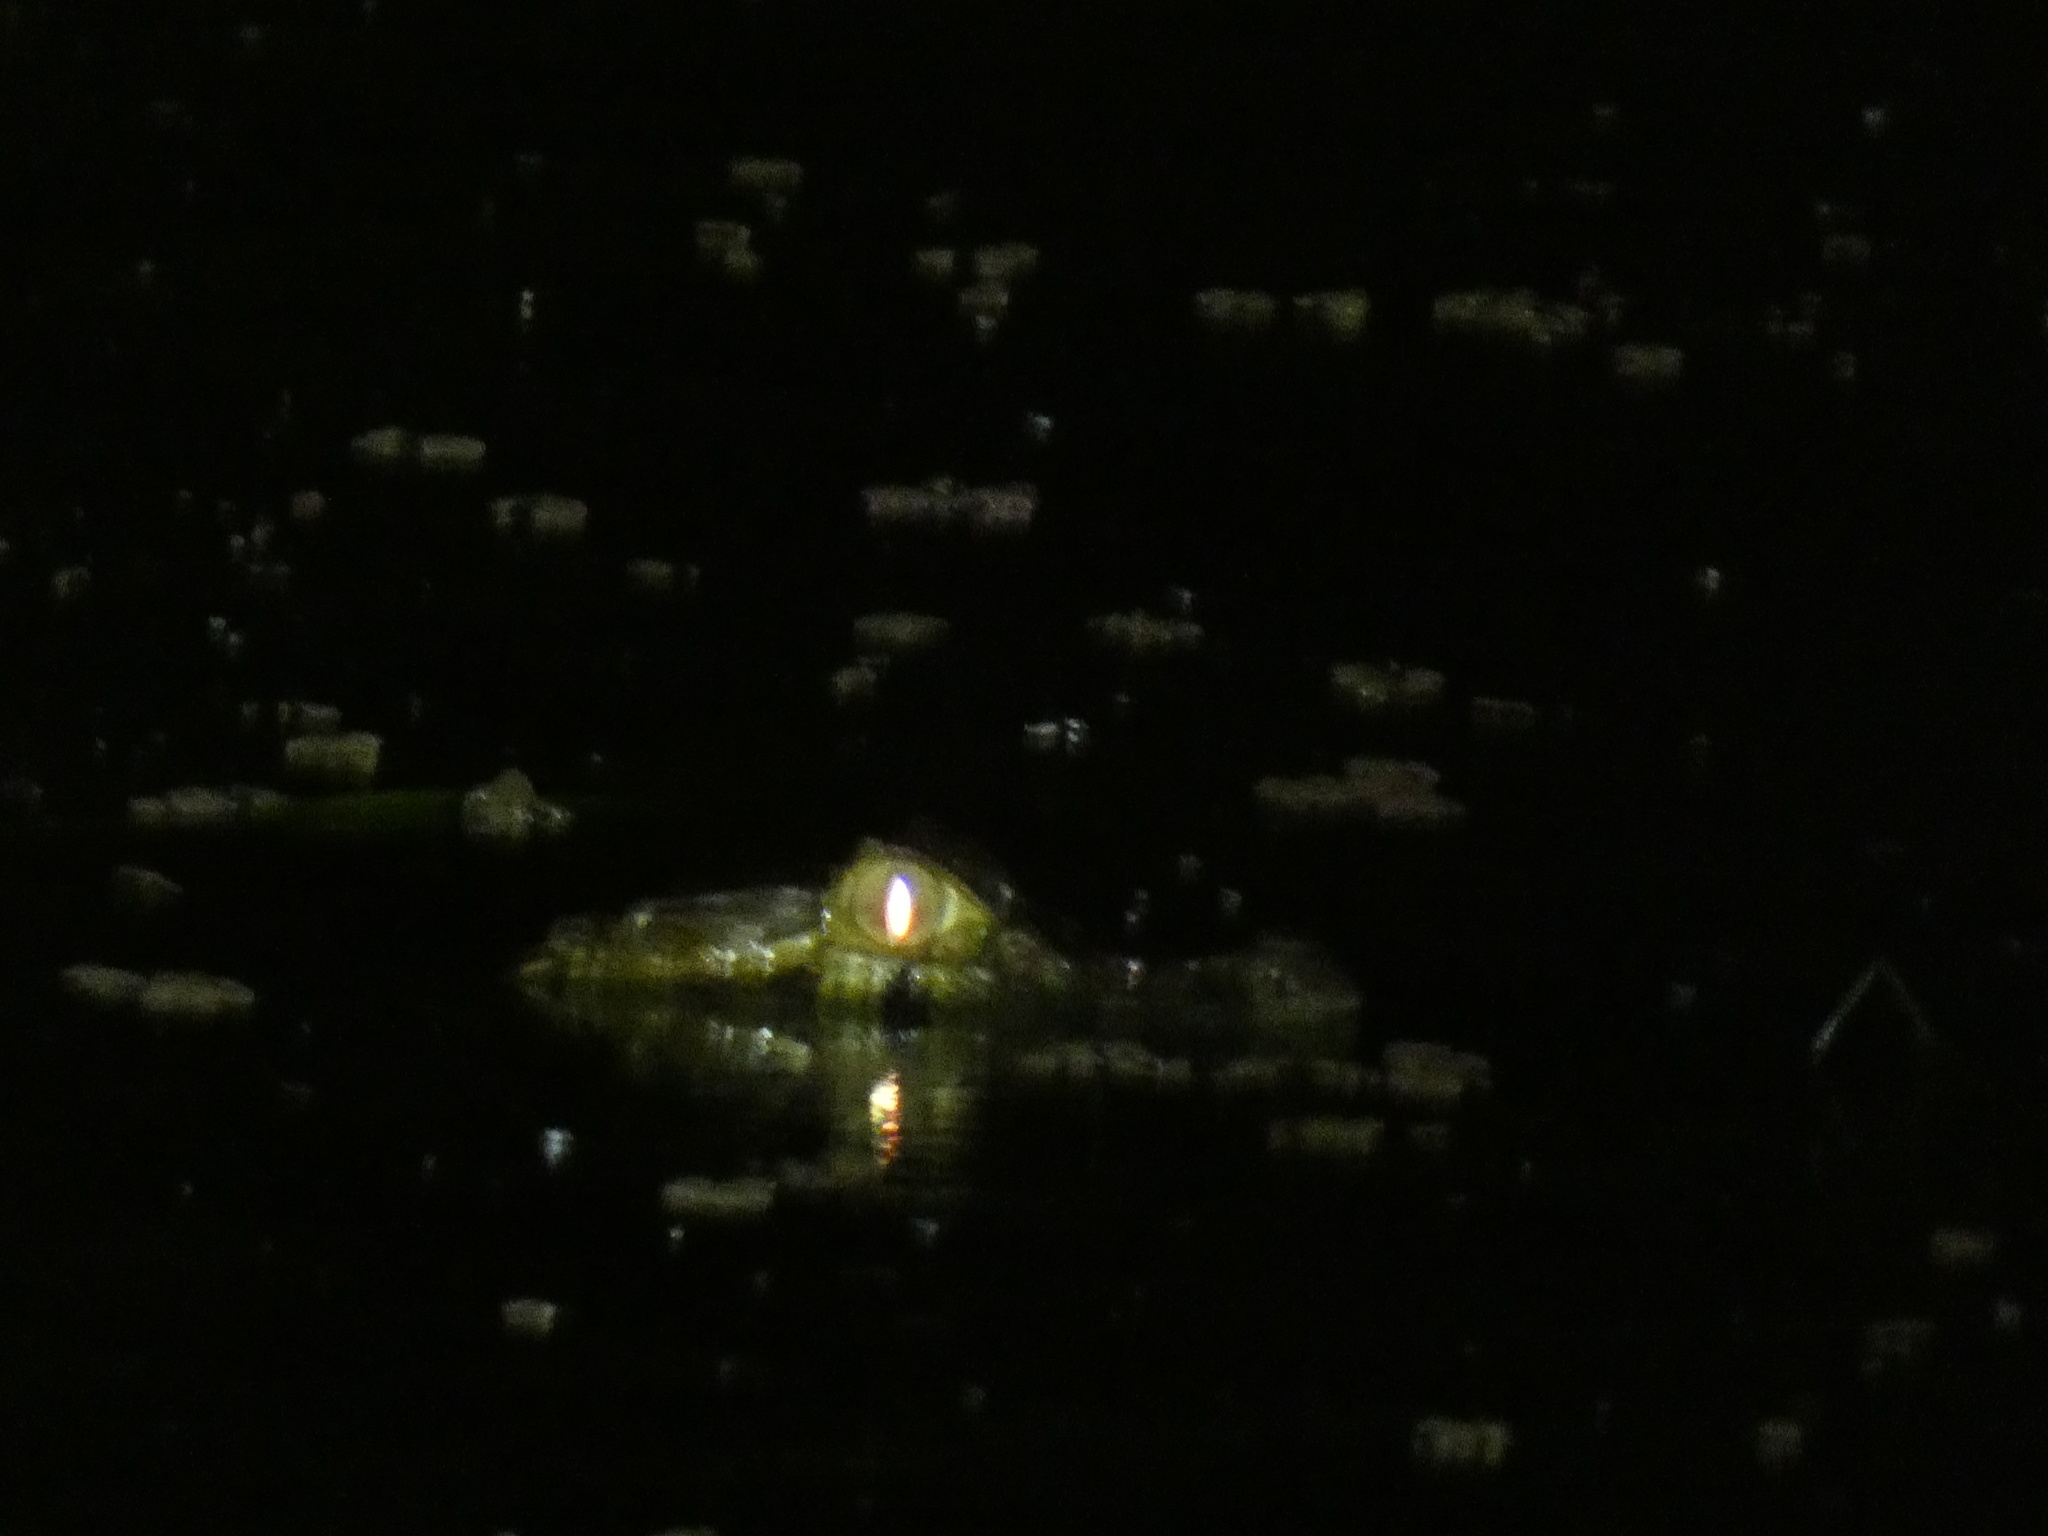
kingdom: Animalia
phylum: Chordata
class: Crocodylia
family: Alligatoridae
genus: Caiman
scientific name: Caiman latirostris
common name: Broad-snouted caiman
